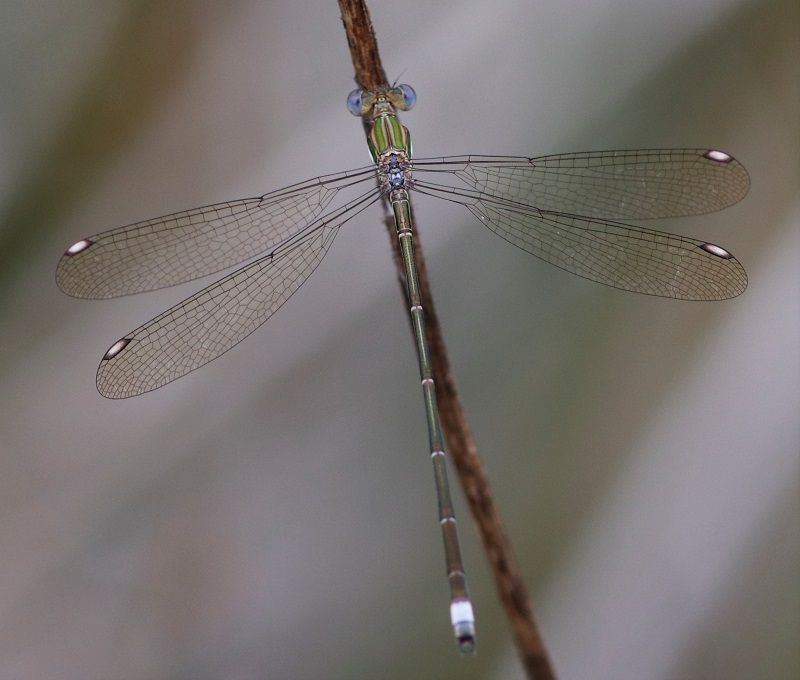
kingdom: Animalia
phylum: Arthropoda
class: Insecta
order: Odonata
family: Lestidae
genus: Lestes
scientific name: Lestes virgatus
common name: Smoky spreadwing
